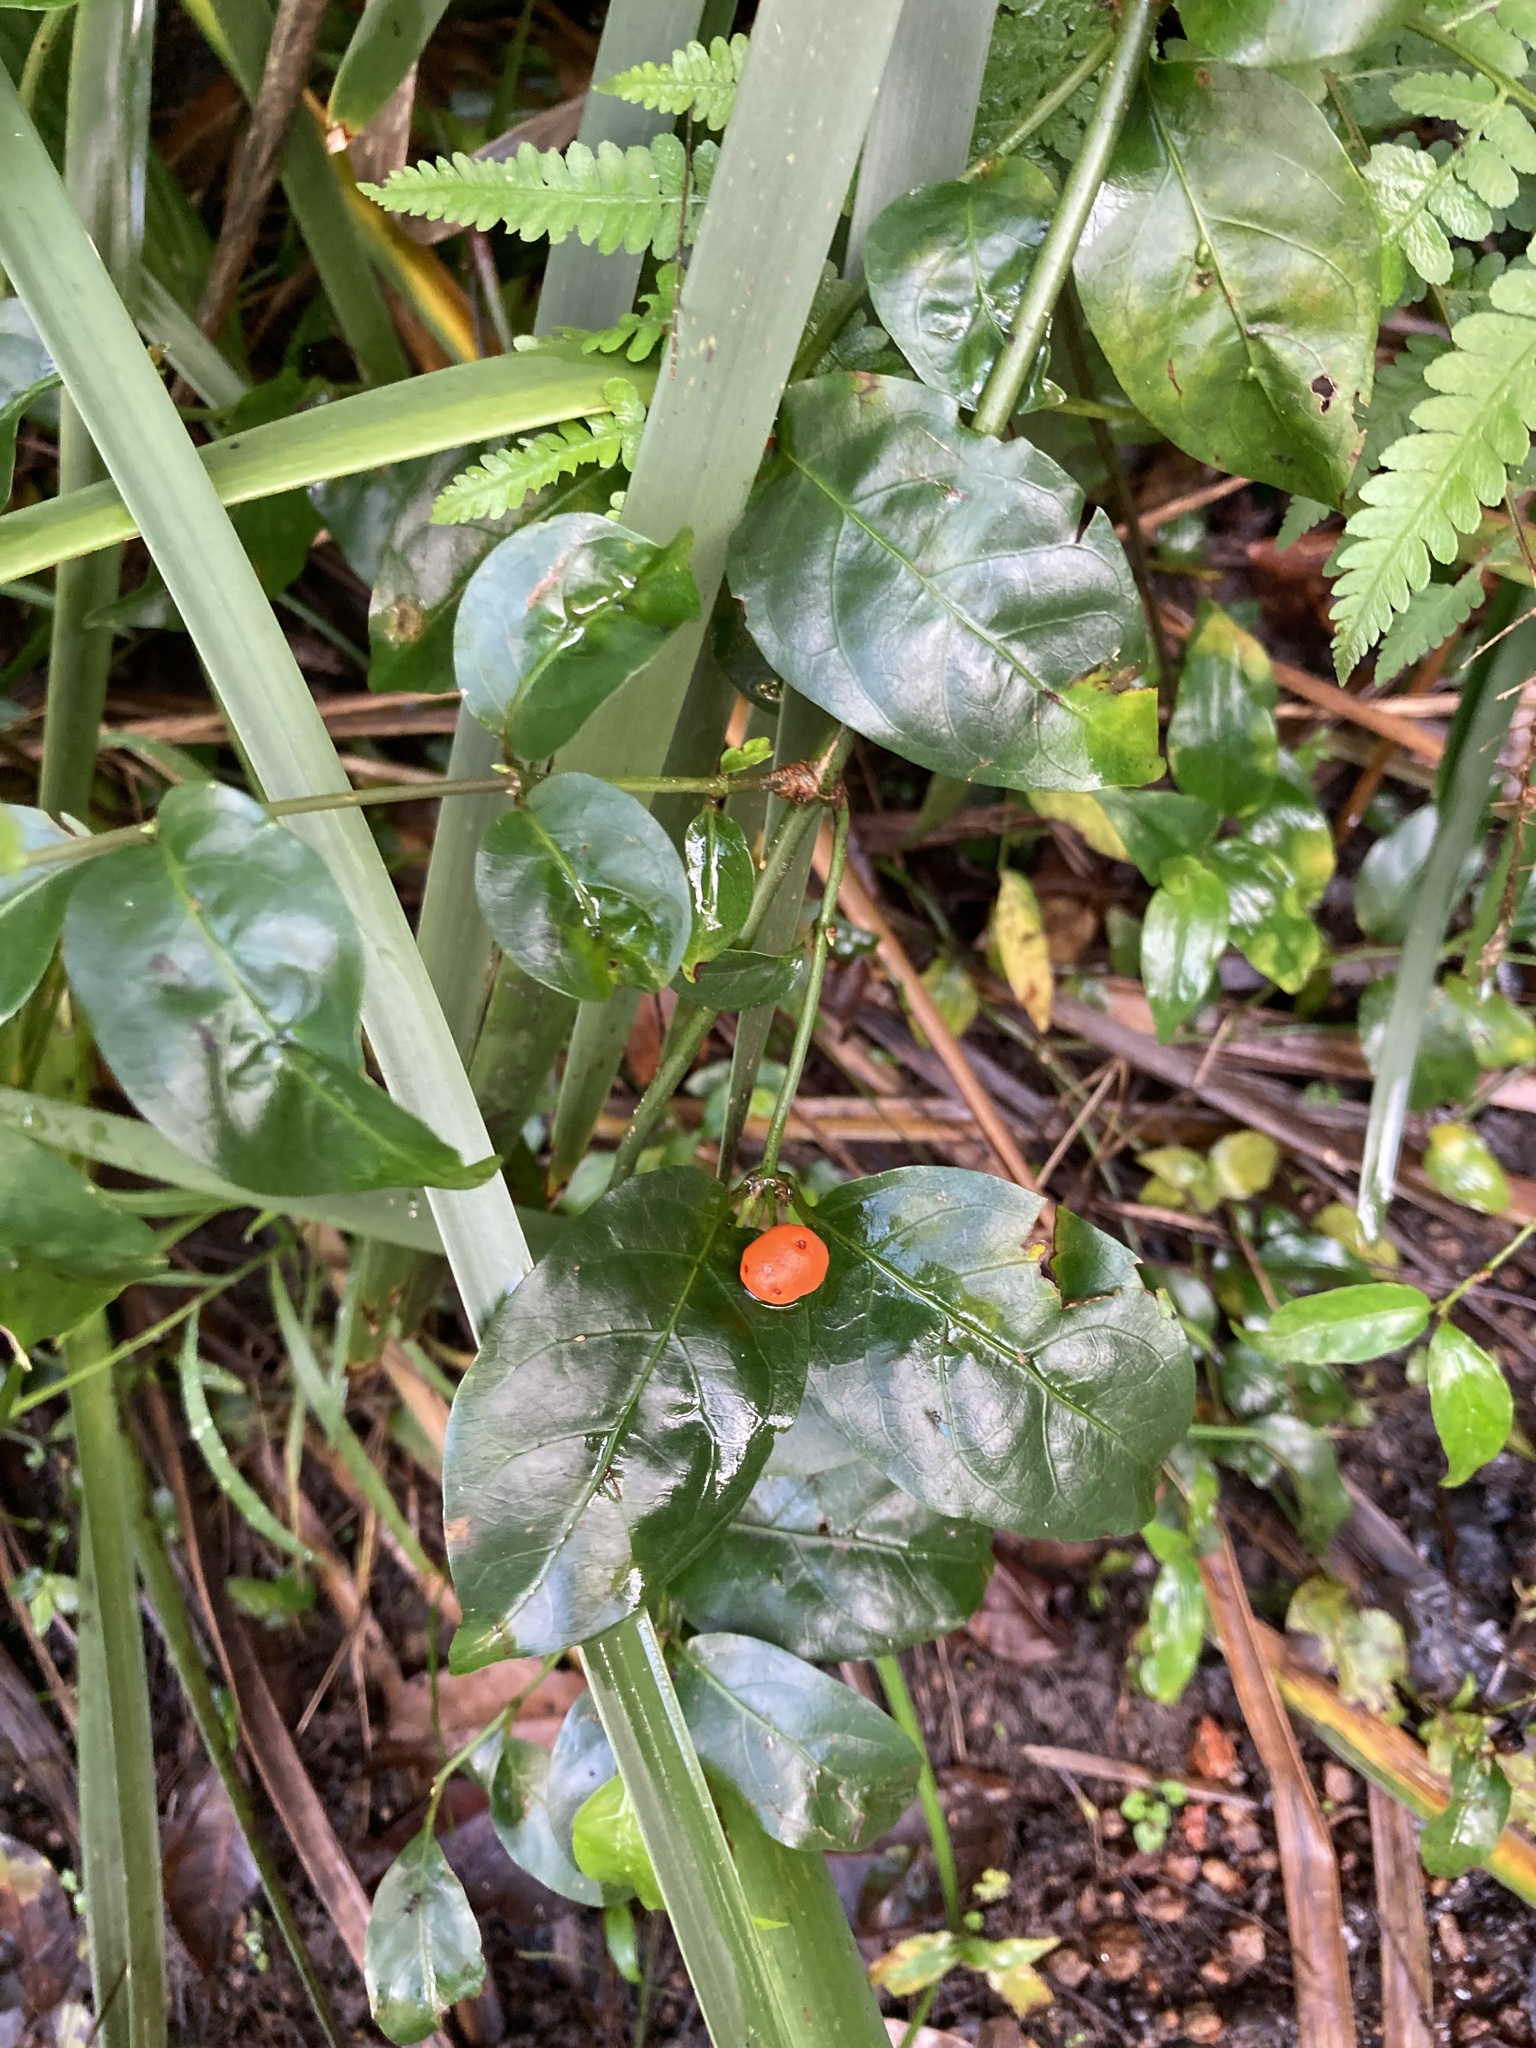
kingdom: Plantae
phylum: Tracheophyta
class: Magnoliopsida
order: Gentianales
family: Rubiaceae
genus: Gynochthodes
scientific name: Gynochthodes jasminoides
